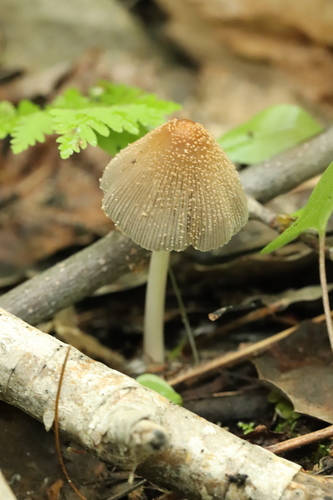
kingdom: Fungi
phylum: Basidiomycota
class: Agaricomycetes
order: Agaricales
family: Psathyrellaceae
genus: Coprinellus
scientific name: Coprinellus domesticus
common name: Firerug inkcap
